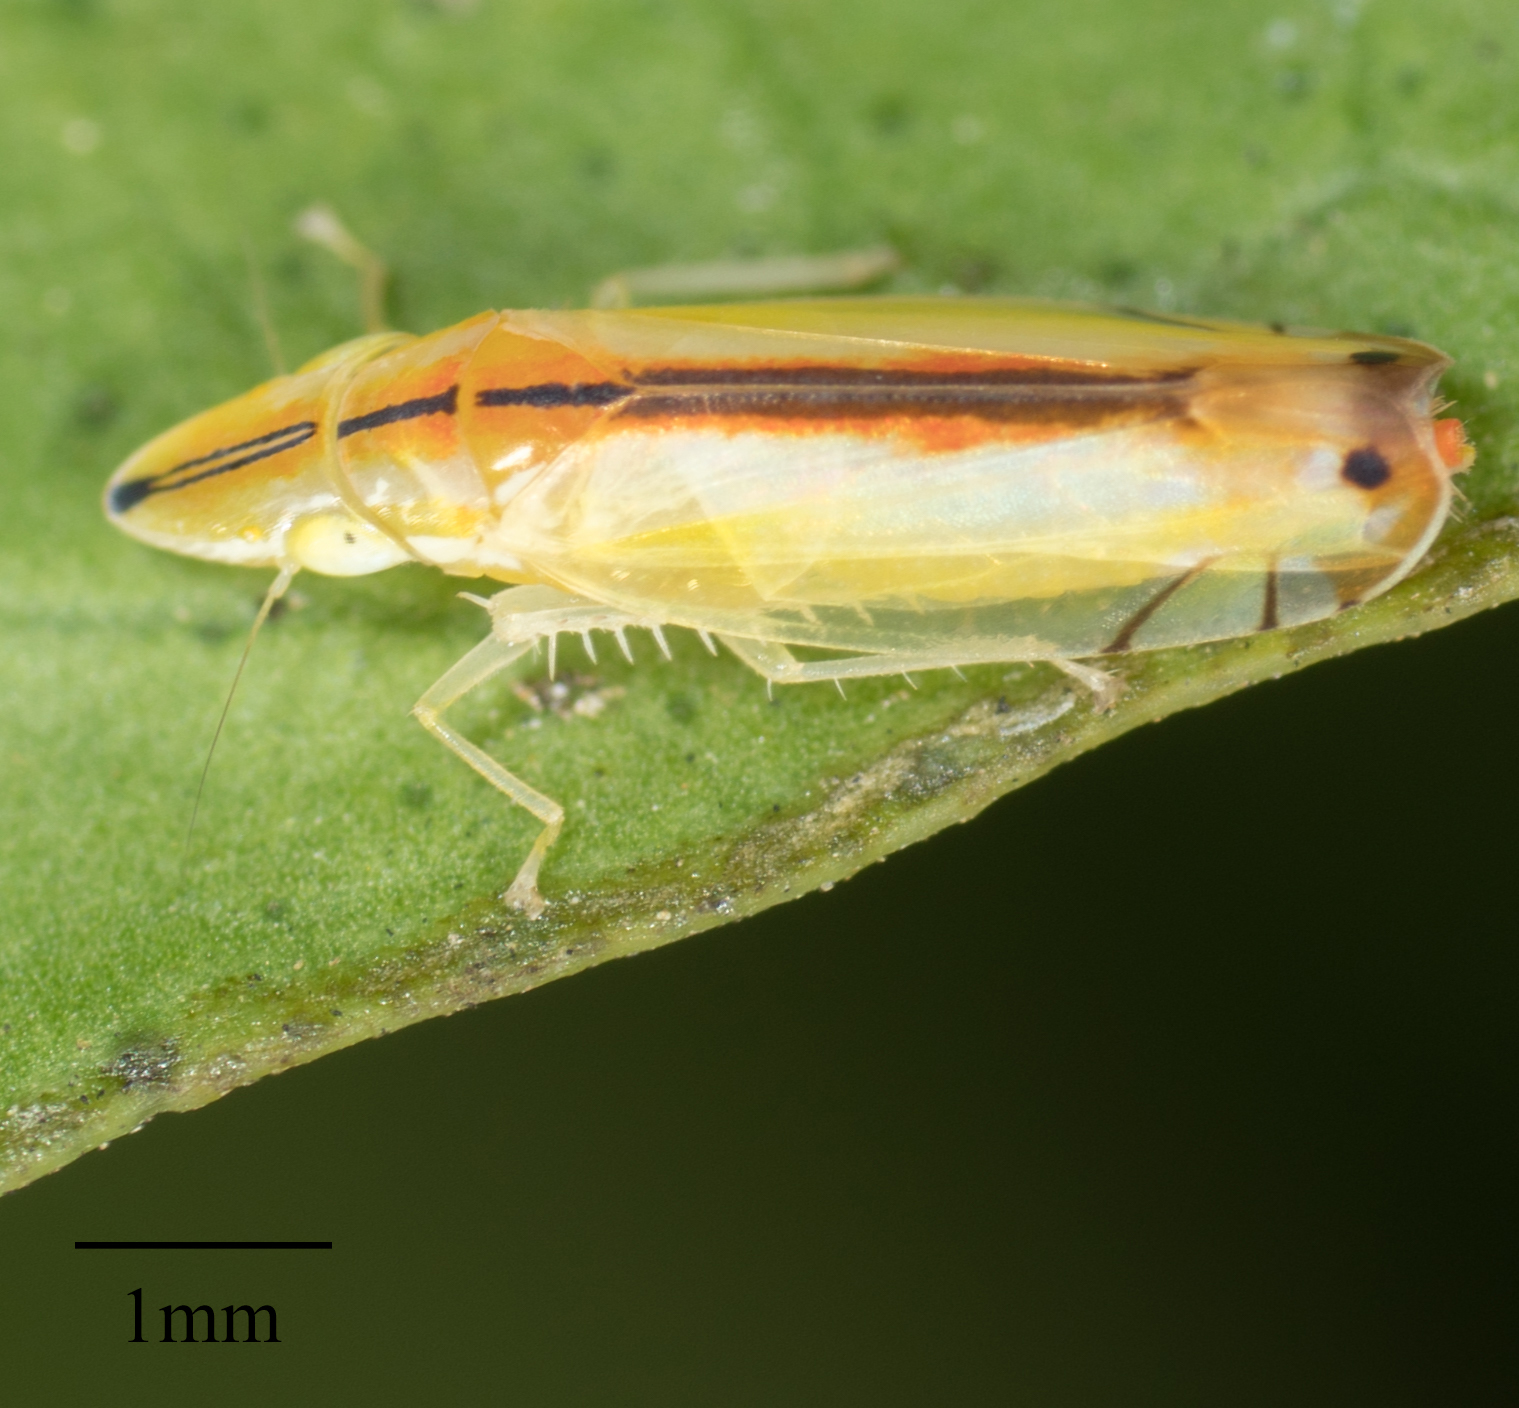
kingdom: Animalia
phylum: Arthropoda
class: Insecta
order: Hemiptera
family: Cicadellidae
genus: Sophonia
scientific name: Sophonia orientalis
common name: Two-spotted leafhopper
